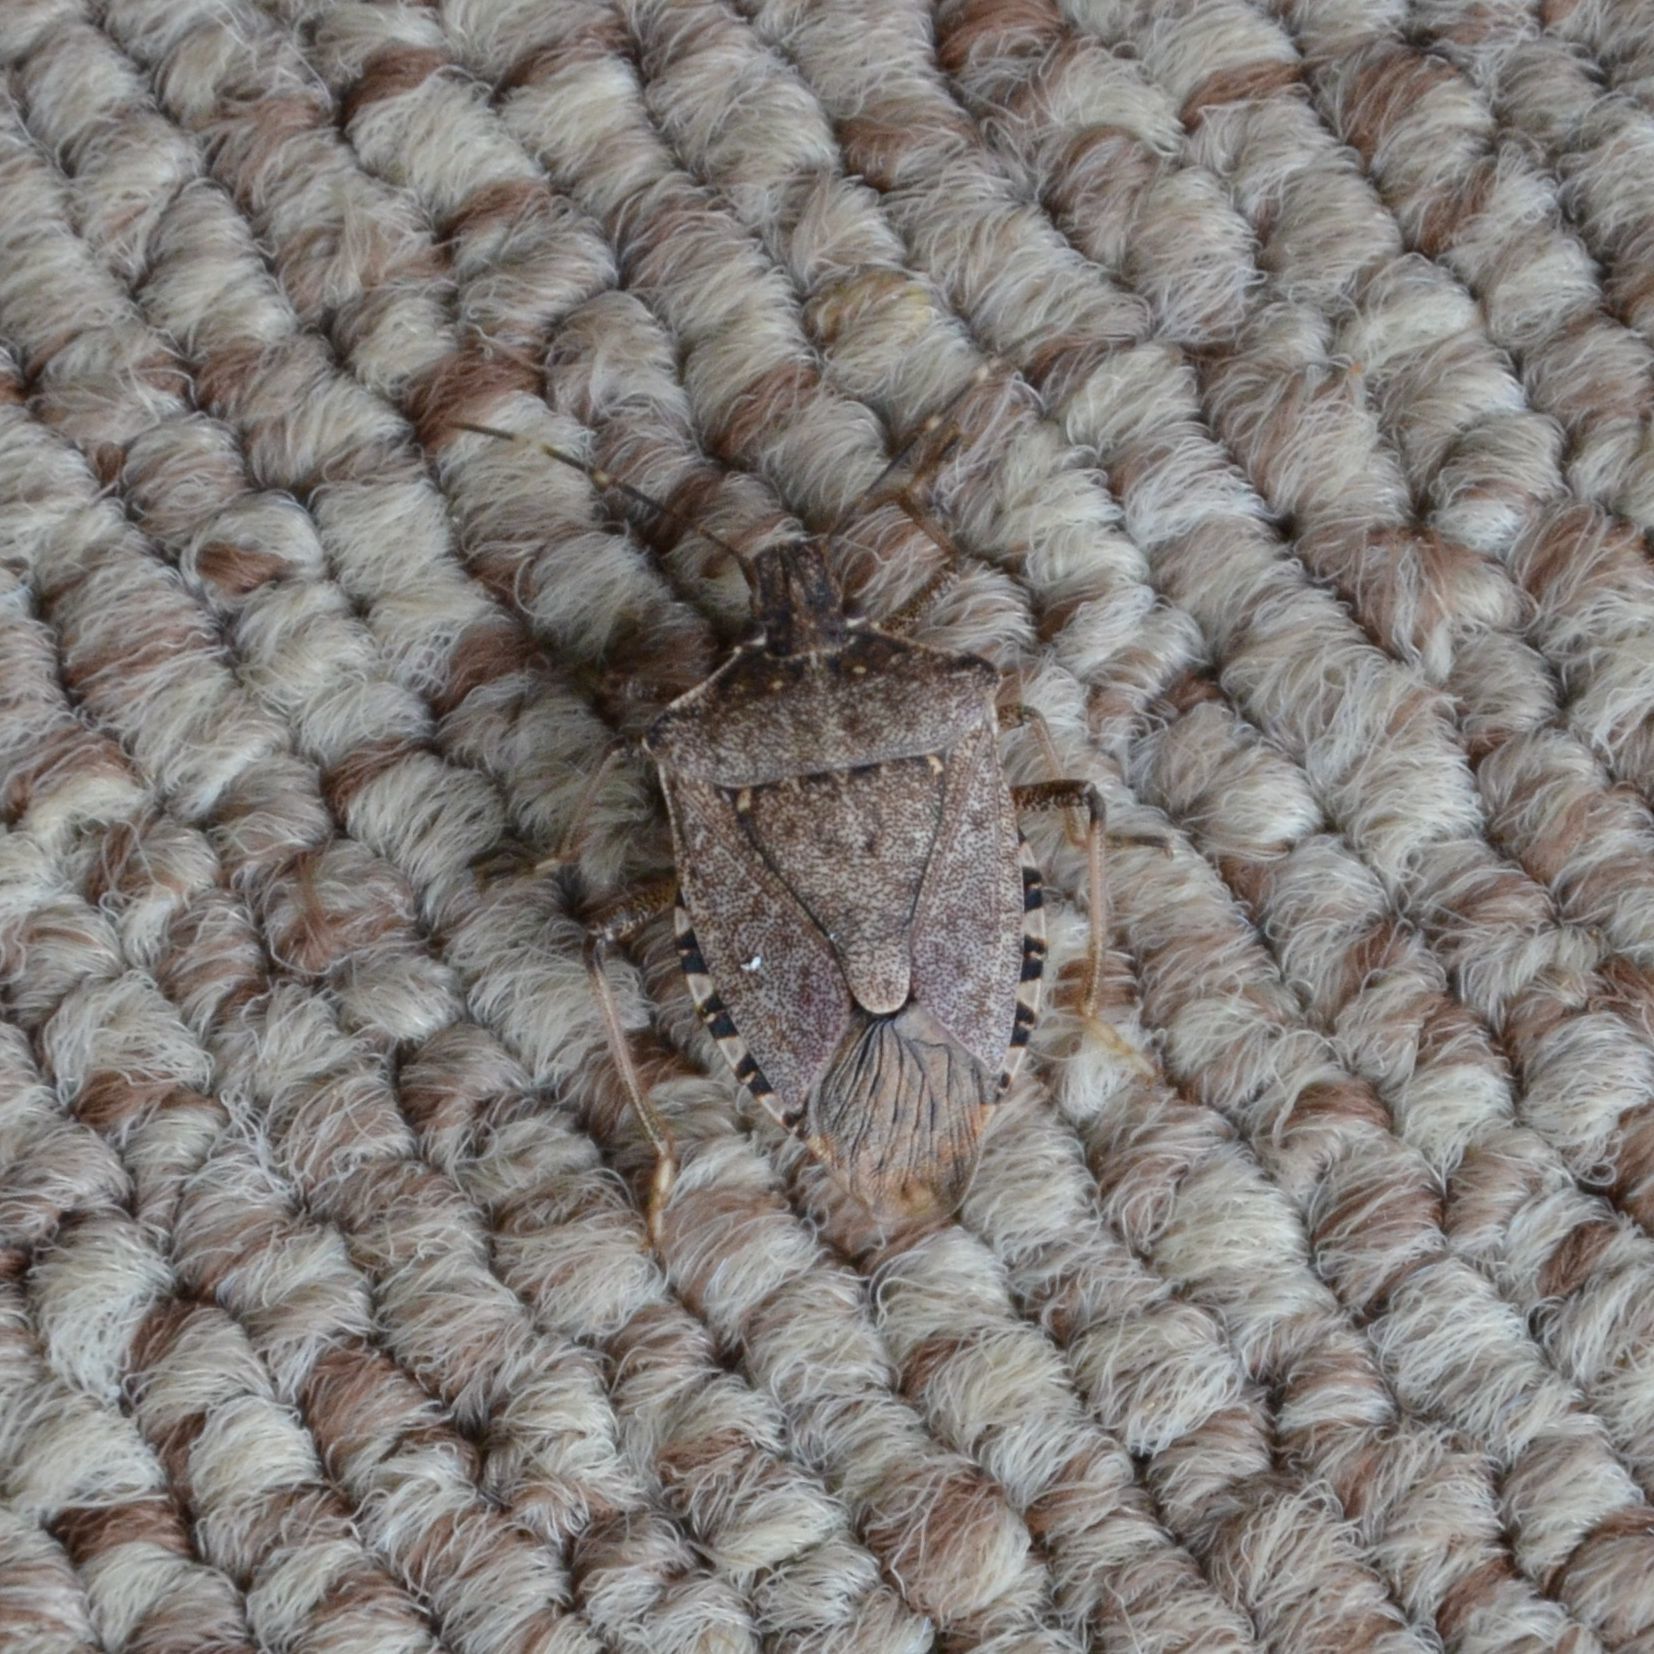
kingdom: Animalia
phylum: Arthropoda
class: Insecta
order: Hemiptera
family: Pentatomidae
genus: Halyomorpha
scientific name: Halyomorpha halys
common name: Brown marmorated stink bug
